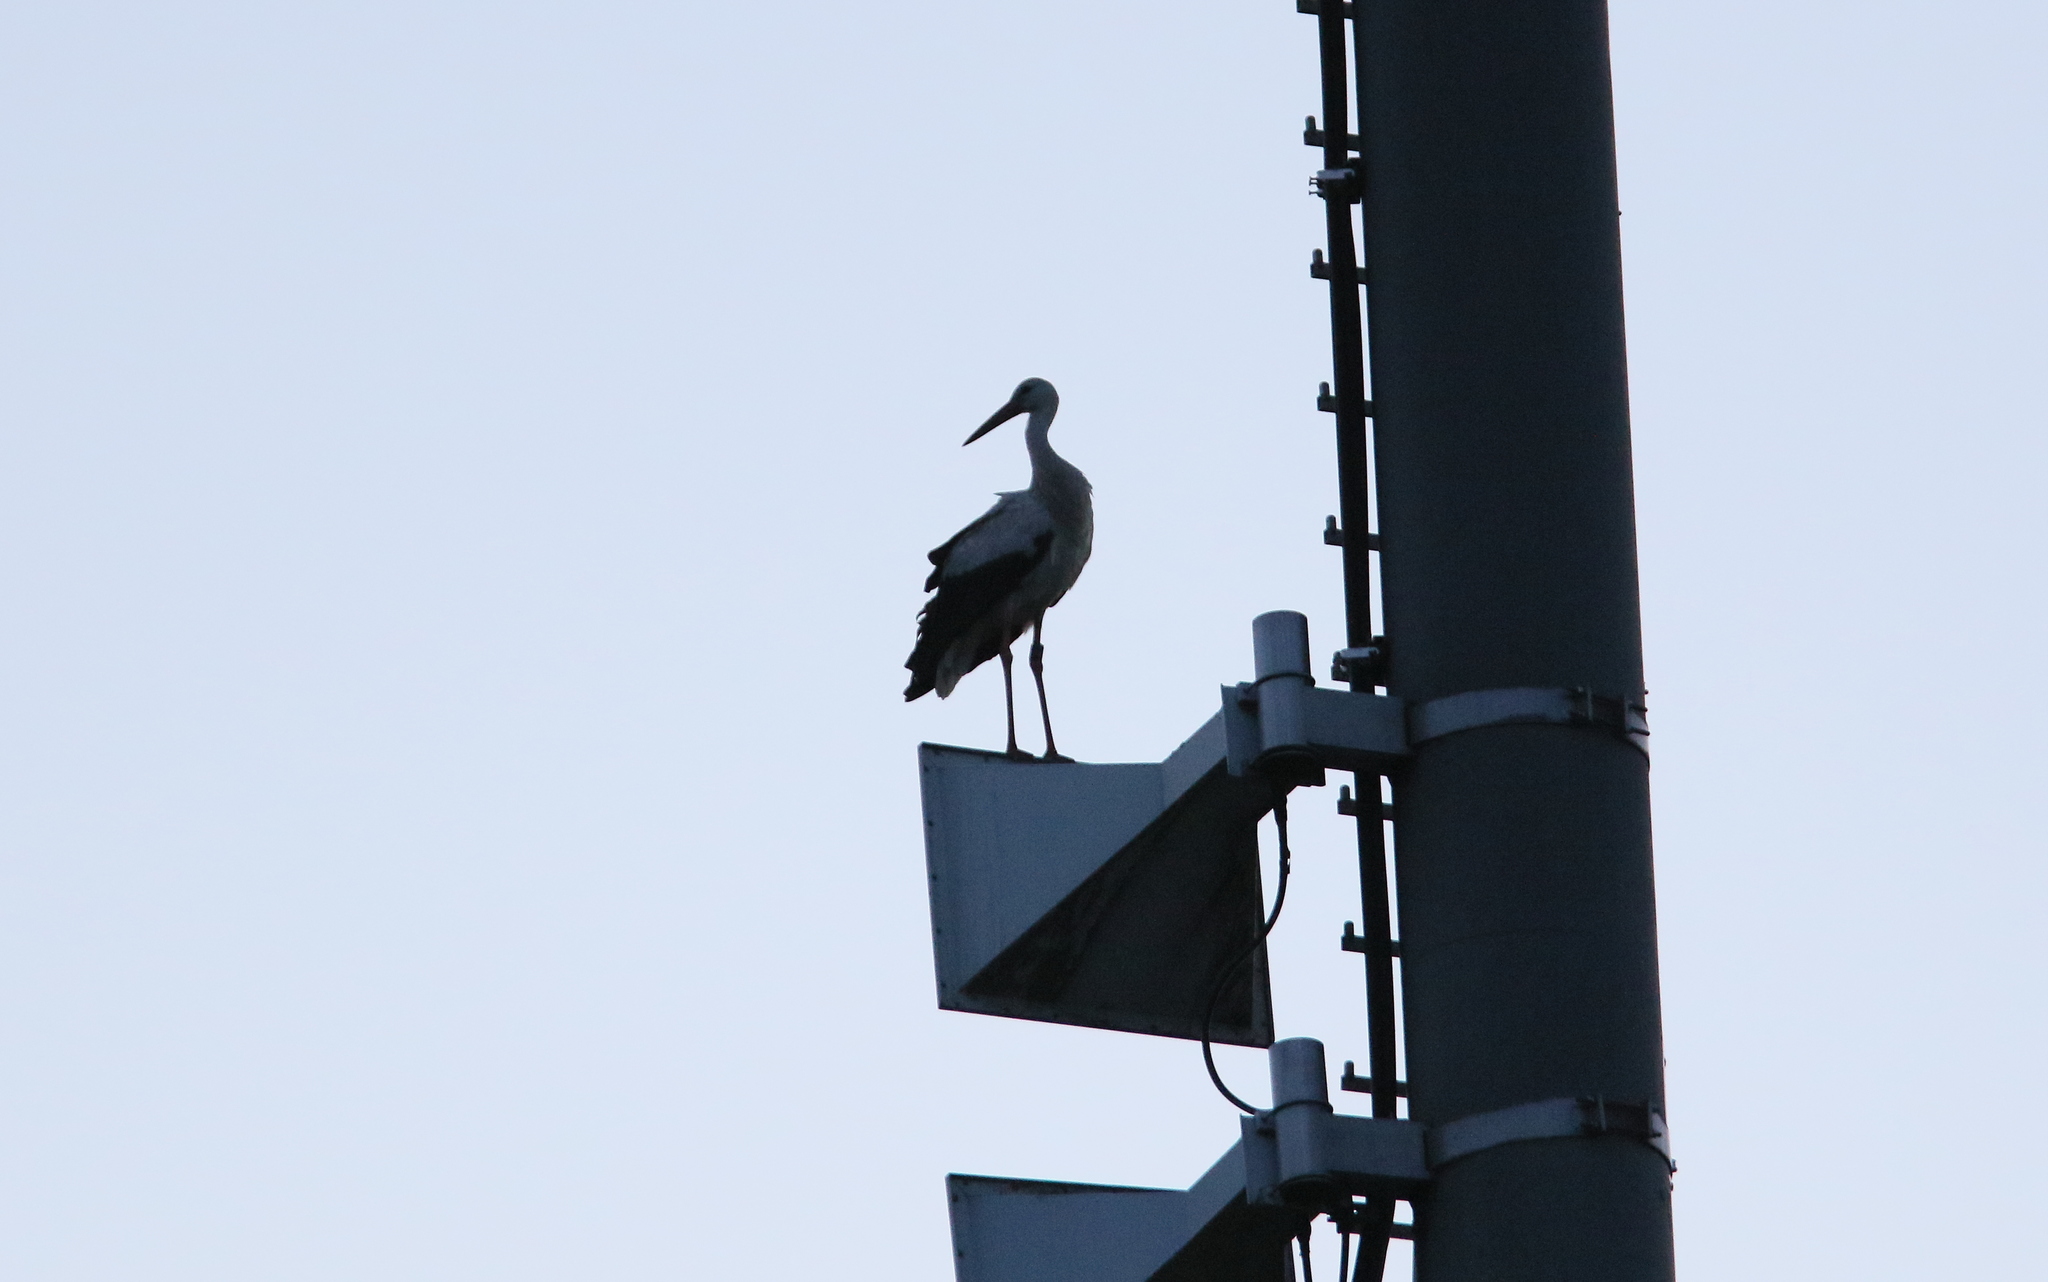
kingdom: Animalia
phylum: Chordata
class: Aves
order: Ciconiiformes
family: Ciconiidae
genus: Ciconia
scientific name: Ciconia ciconia
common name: White stork
